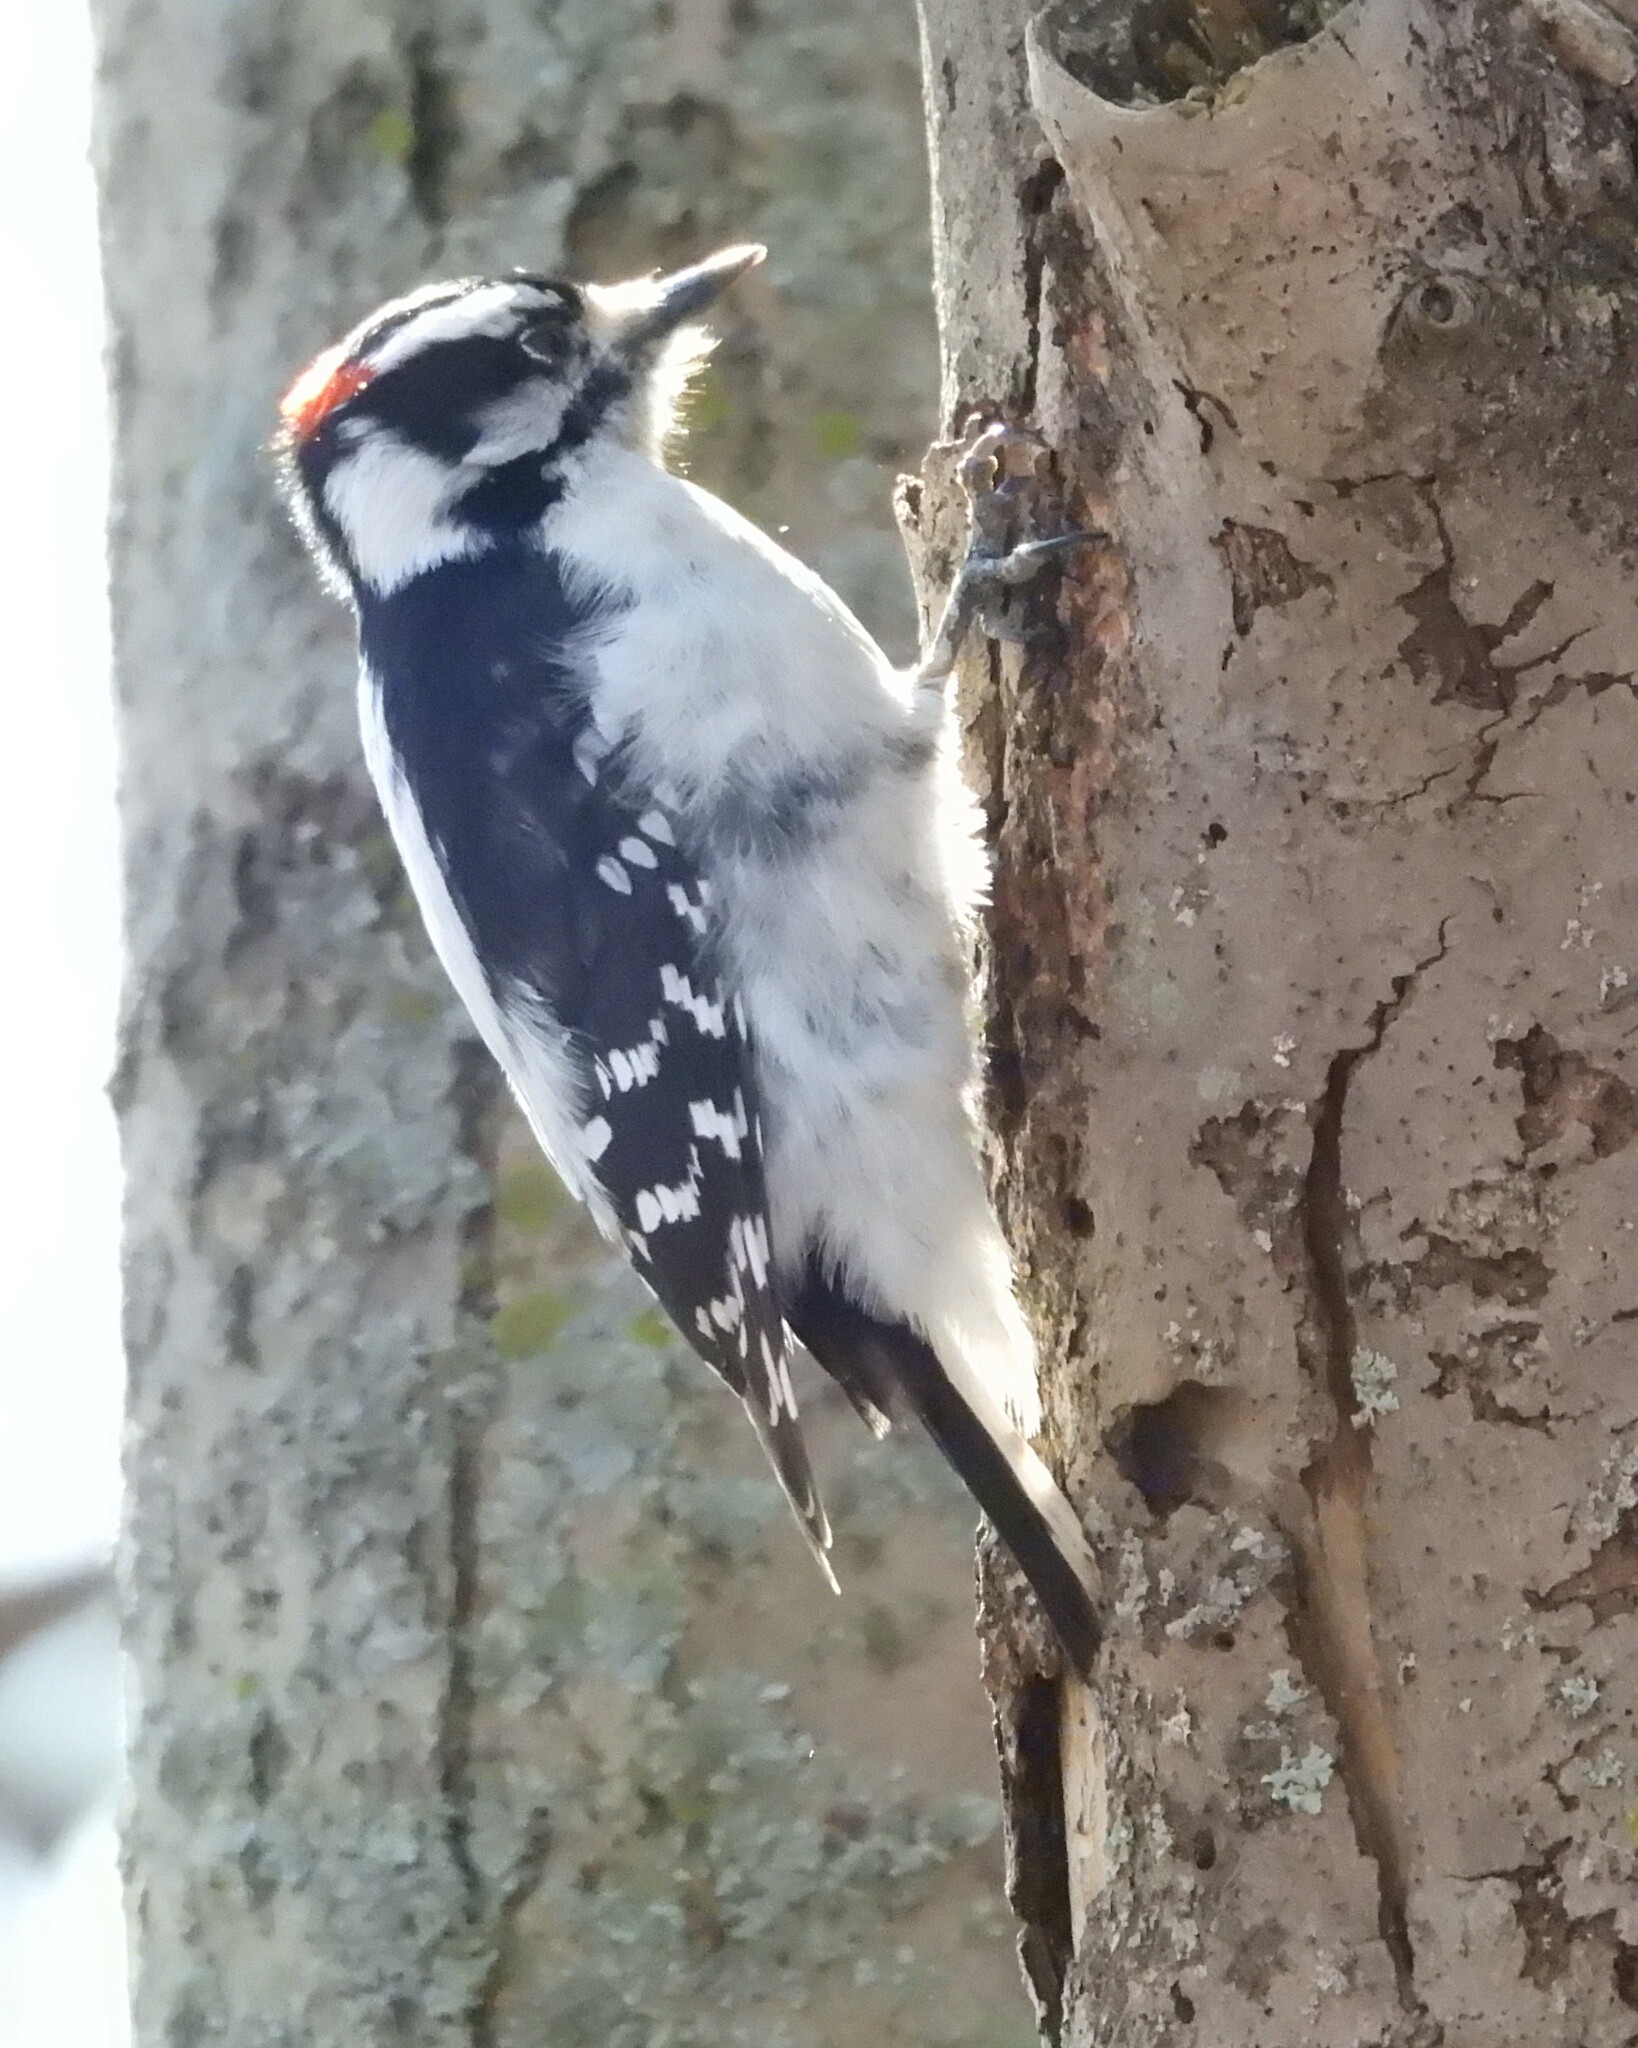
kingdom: Animalia
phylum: Chordata
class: Aves
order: Piciformes
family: Picidae
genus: Dryobates
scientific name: Dryobates pubescens
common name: Downy woodpecker
